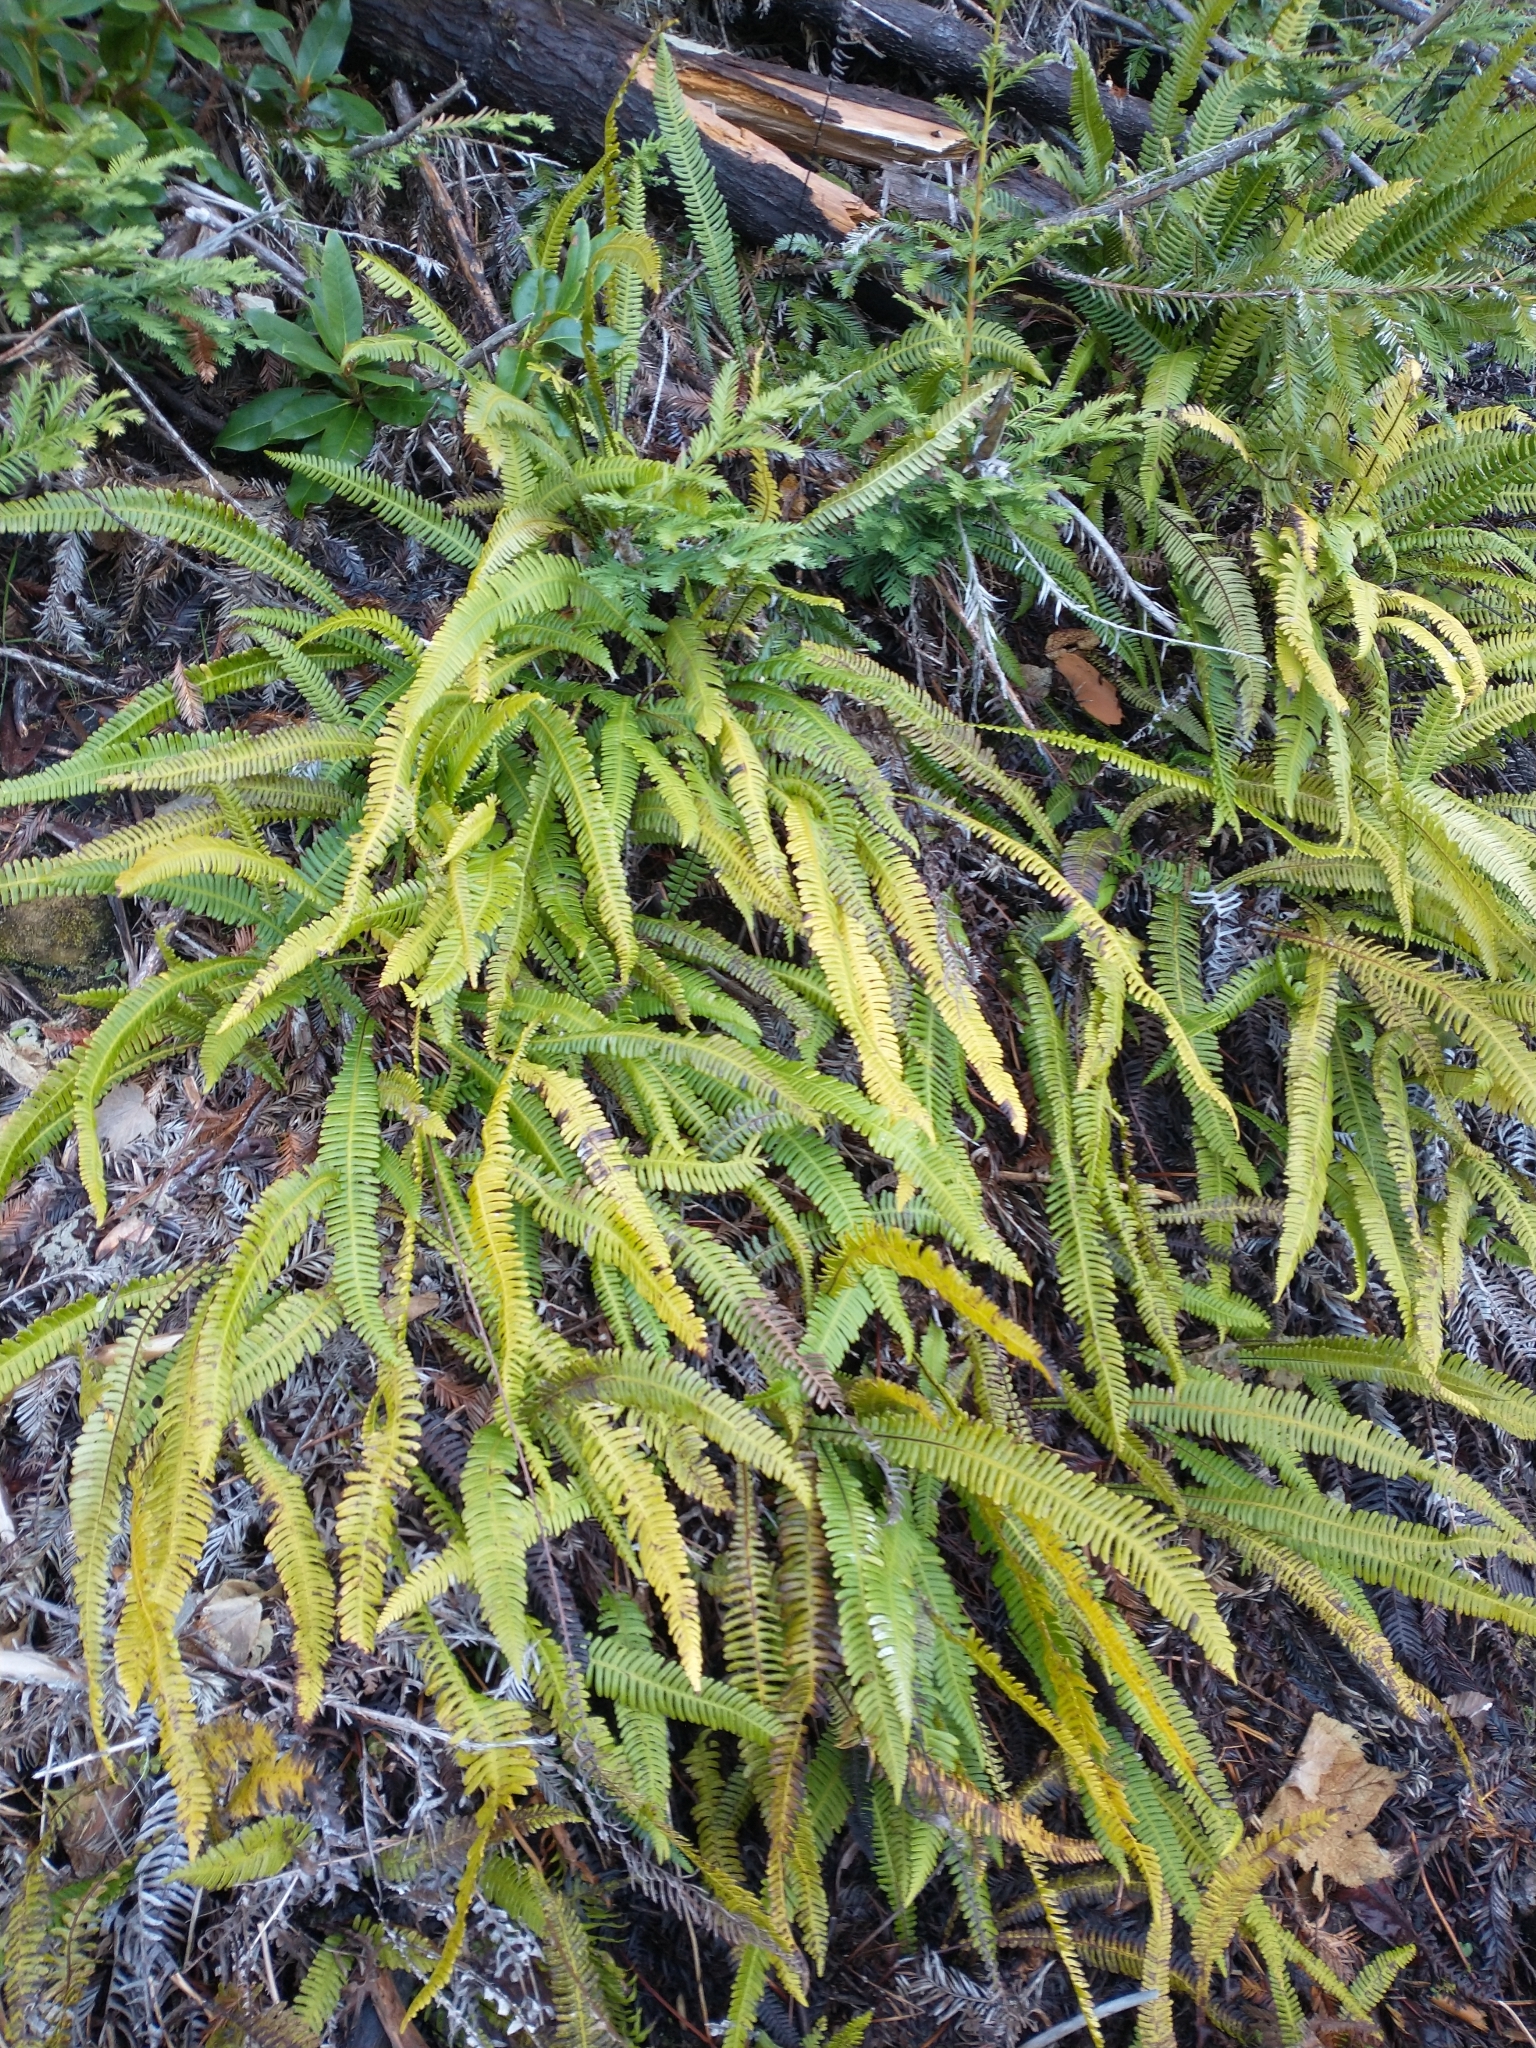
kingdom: Plantae
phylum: Tracheophyta
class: Polypodiopsida
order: Polypodiales
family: Blechnaceae
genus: Struthiopteris
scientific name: Struthiopteris spicant
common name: Deer fern
